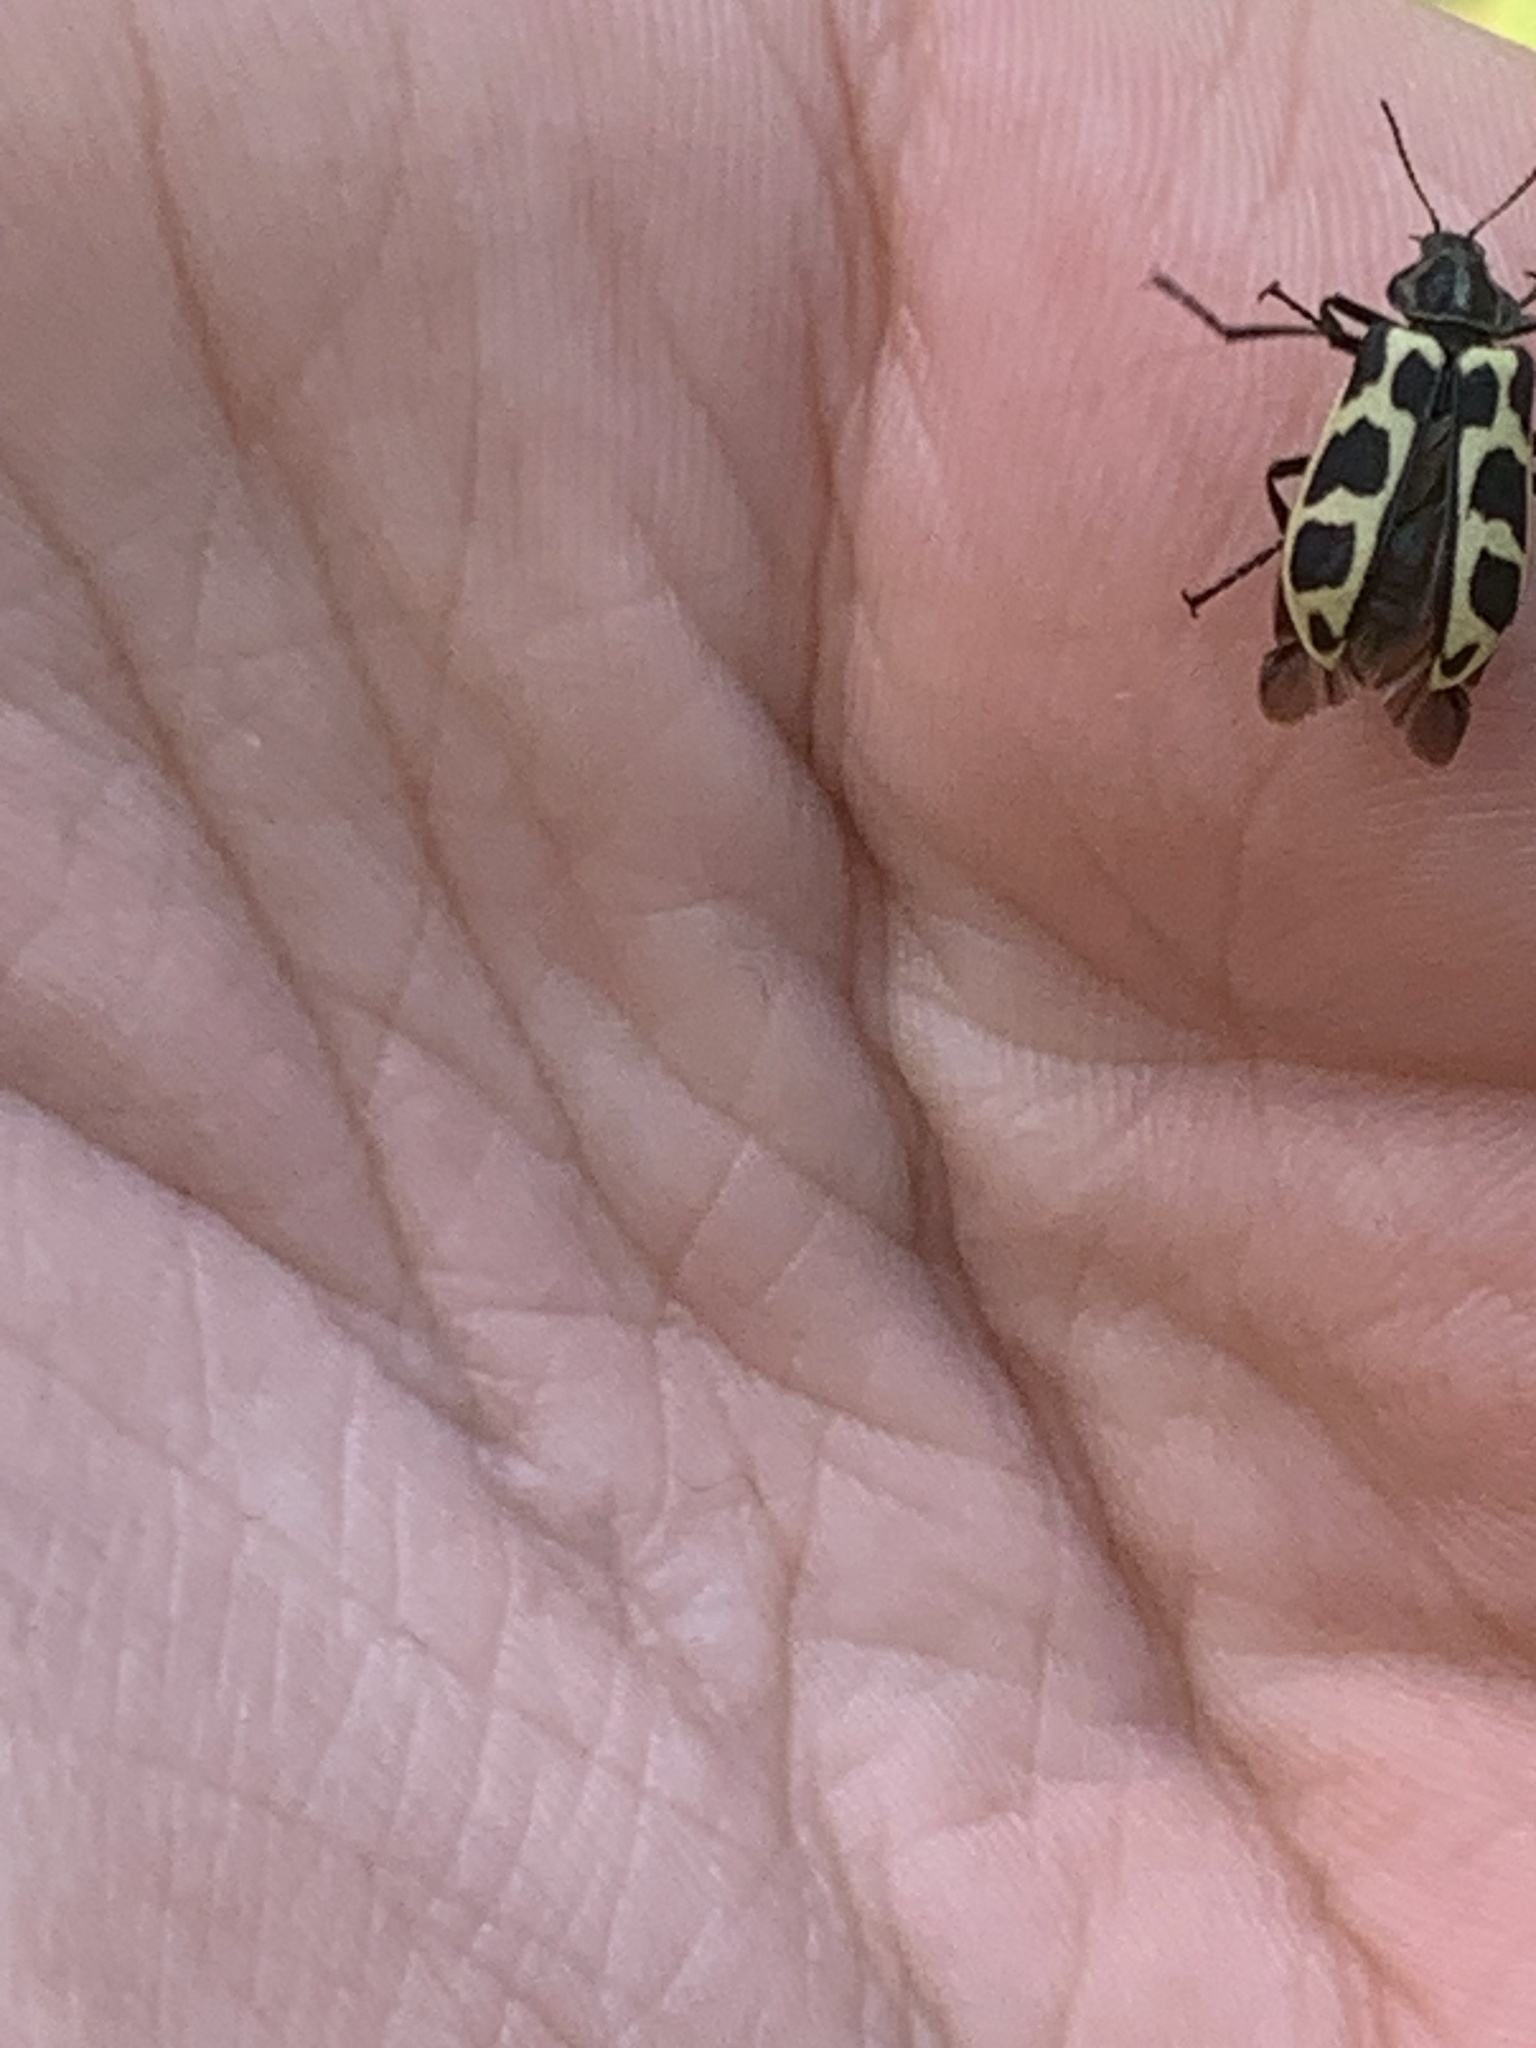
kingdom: Animalia
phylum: Arthropoda
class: Insecta
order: Coleoptera
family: Melyridae
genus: Astylus
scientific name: Astylus atromaculatus
